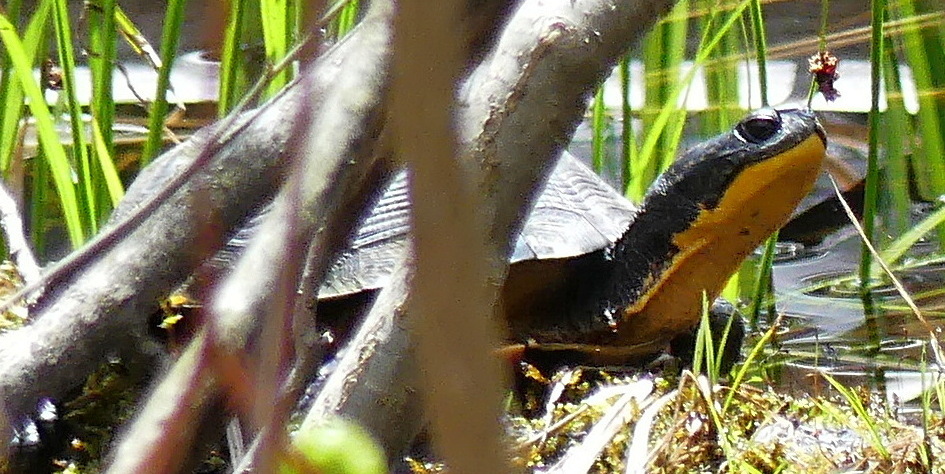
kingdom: Animalia
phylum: Chordata
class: Testudines
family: Emydidae
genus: Emys
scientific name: Emys blandingii
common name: Blanding's turtle
